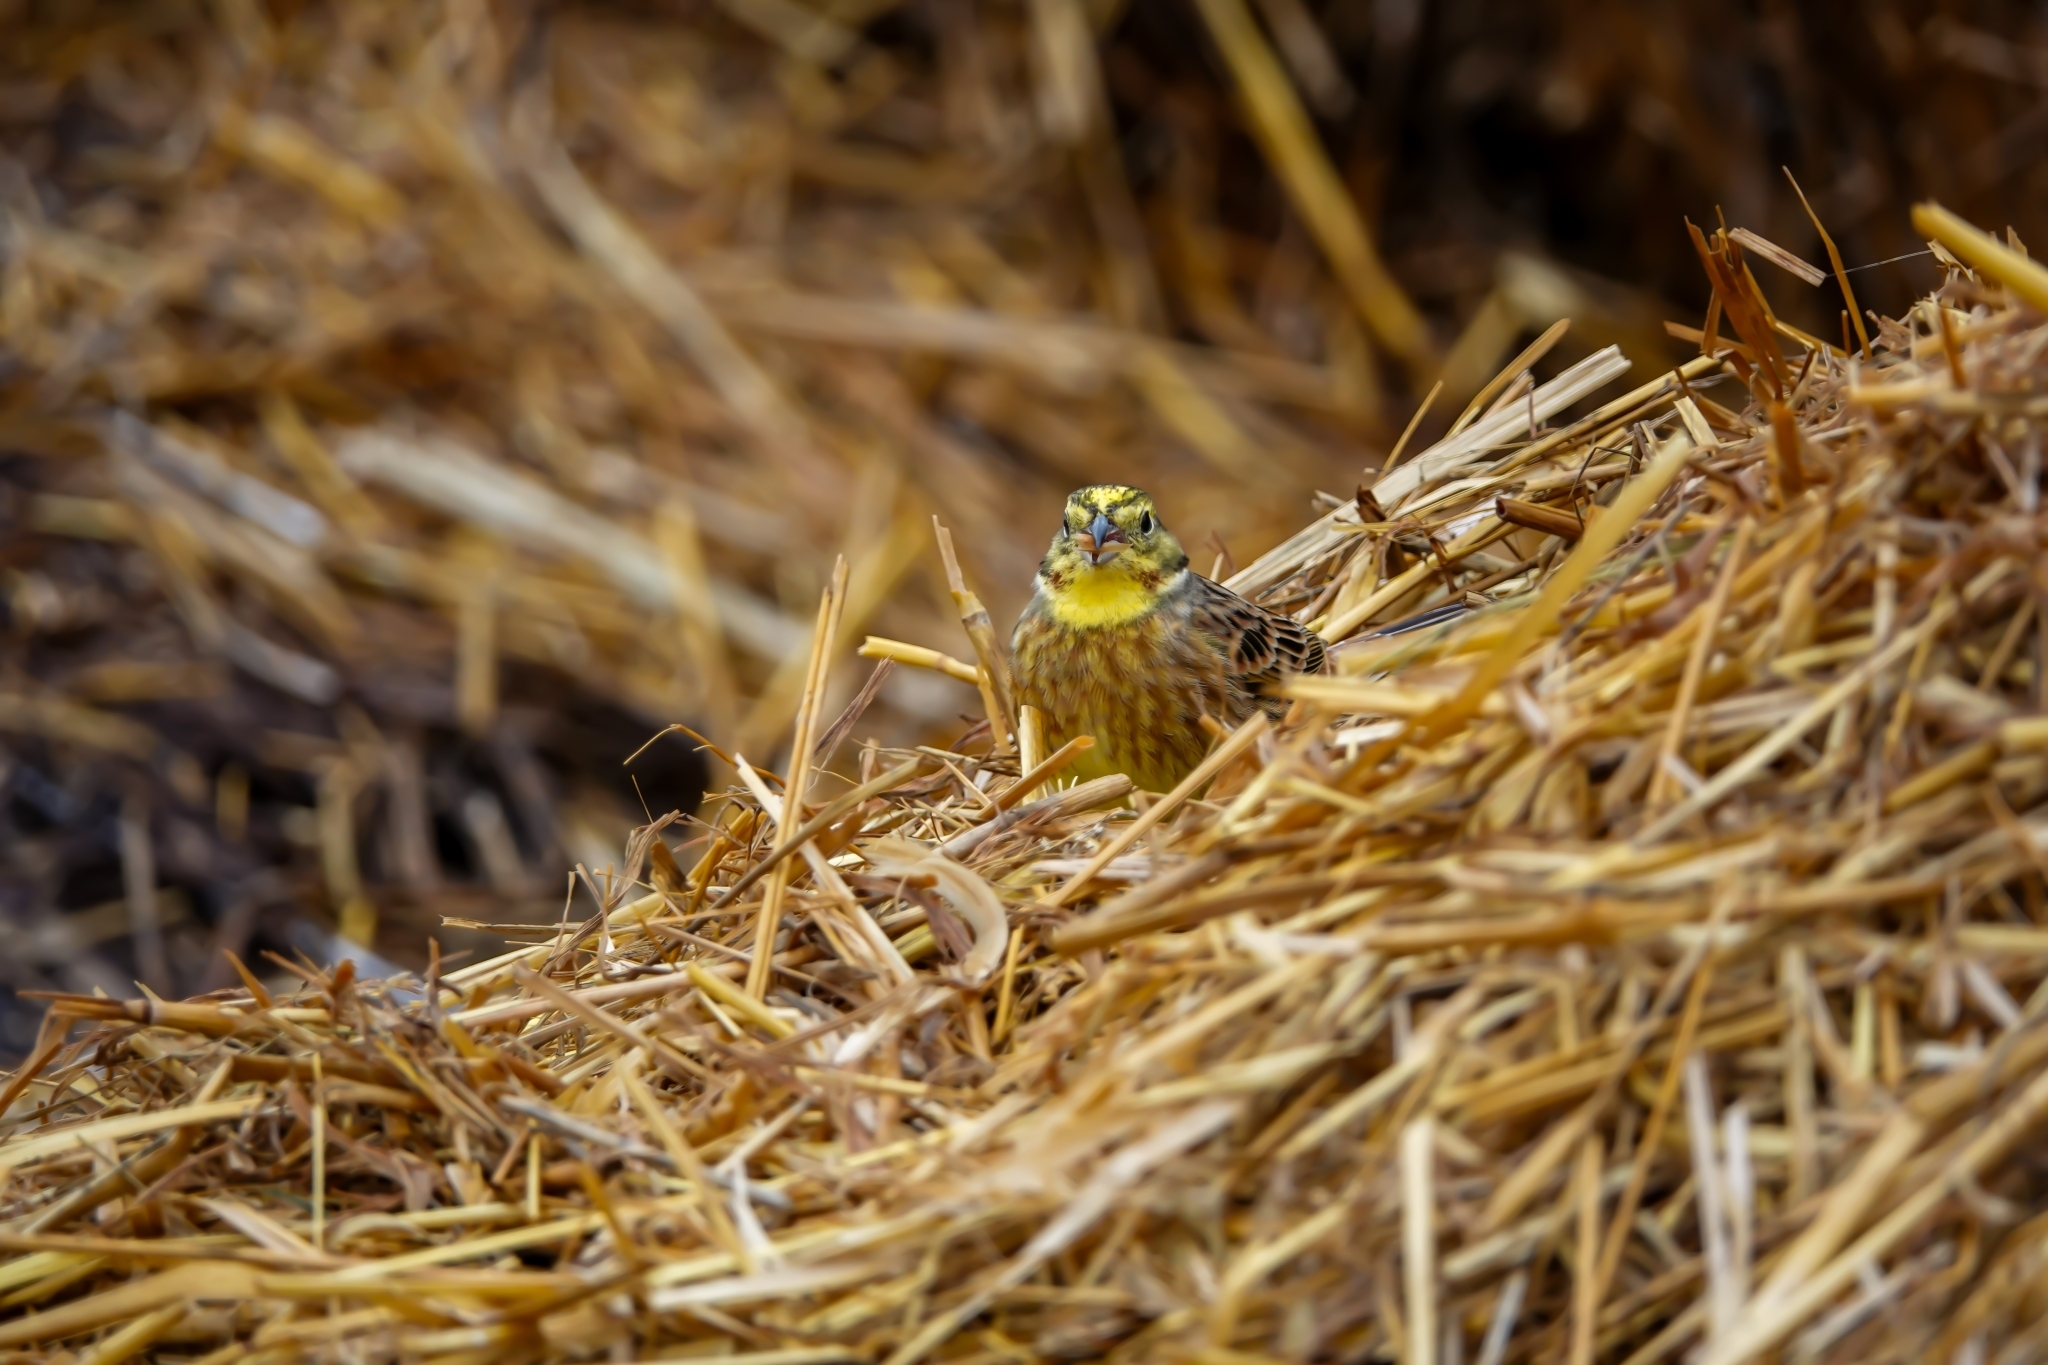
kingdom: Animalia
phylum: Chordata
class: Aves
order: Passeriformes
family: Emberizidae
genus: Emberiza
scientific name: Emberiza citrinella
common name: Yellowhammer
